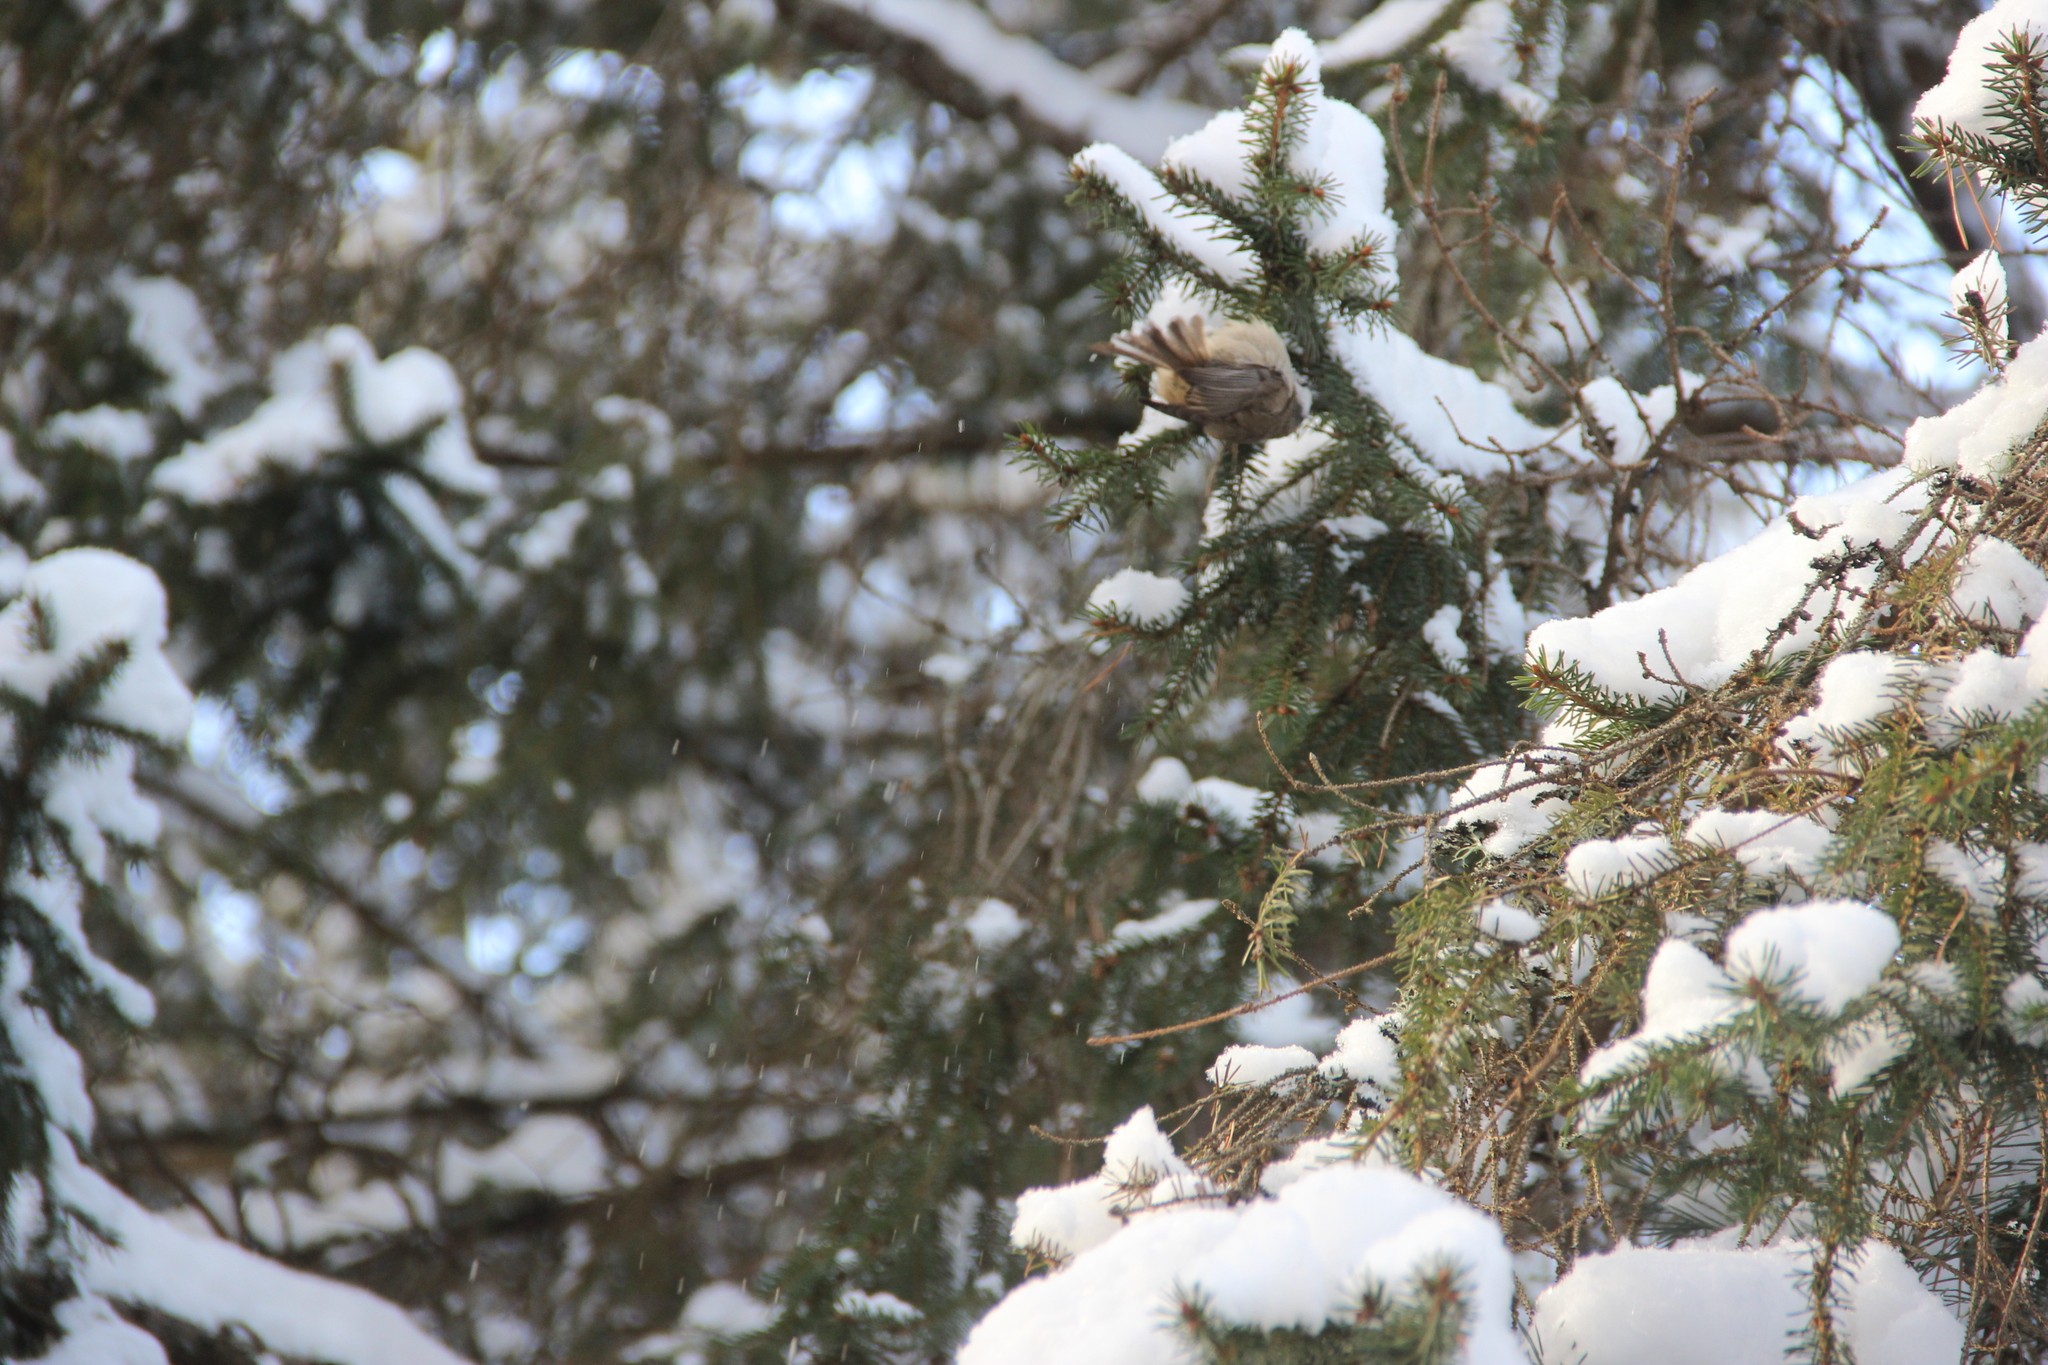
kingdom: Animalia
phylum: Chordata
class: Aves
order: Passeriformes
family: Paridae
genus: Lophophanes
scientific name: Lophophanes cristatus
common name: European crested tit
